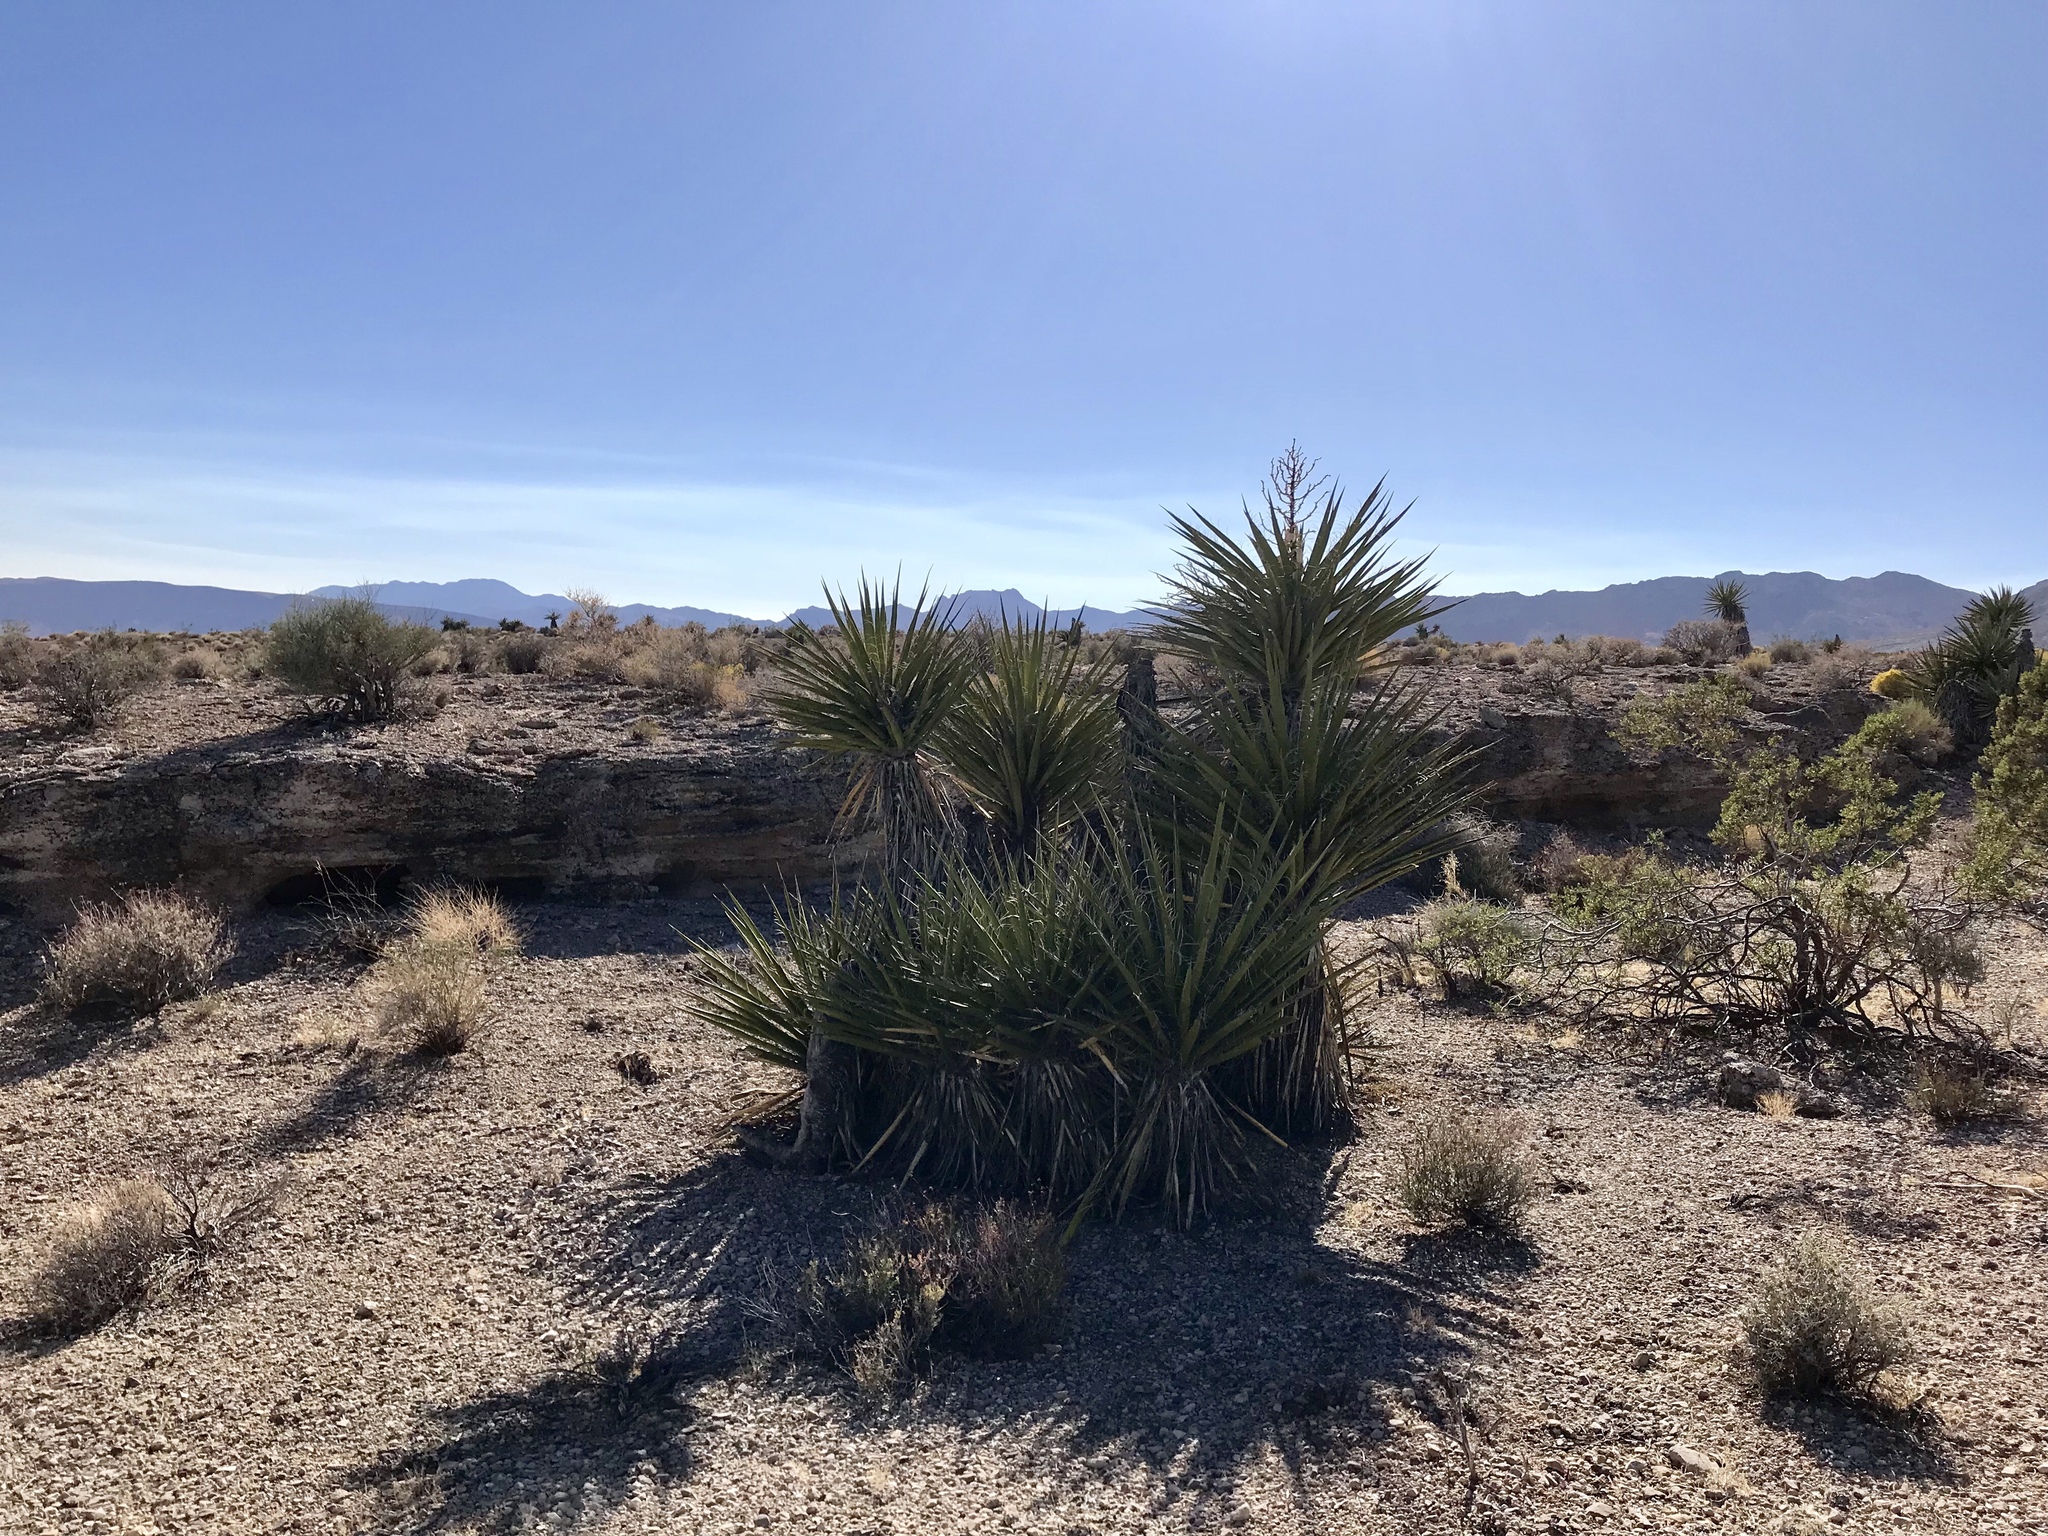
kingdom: Plantae
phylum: Tracheophyta
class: Liliopsida
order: Asparagales
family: Asparagaceae
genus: Yucca
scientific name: Yucca schidigera
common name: Mojave yucca
